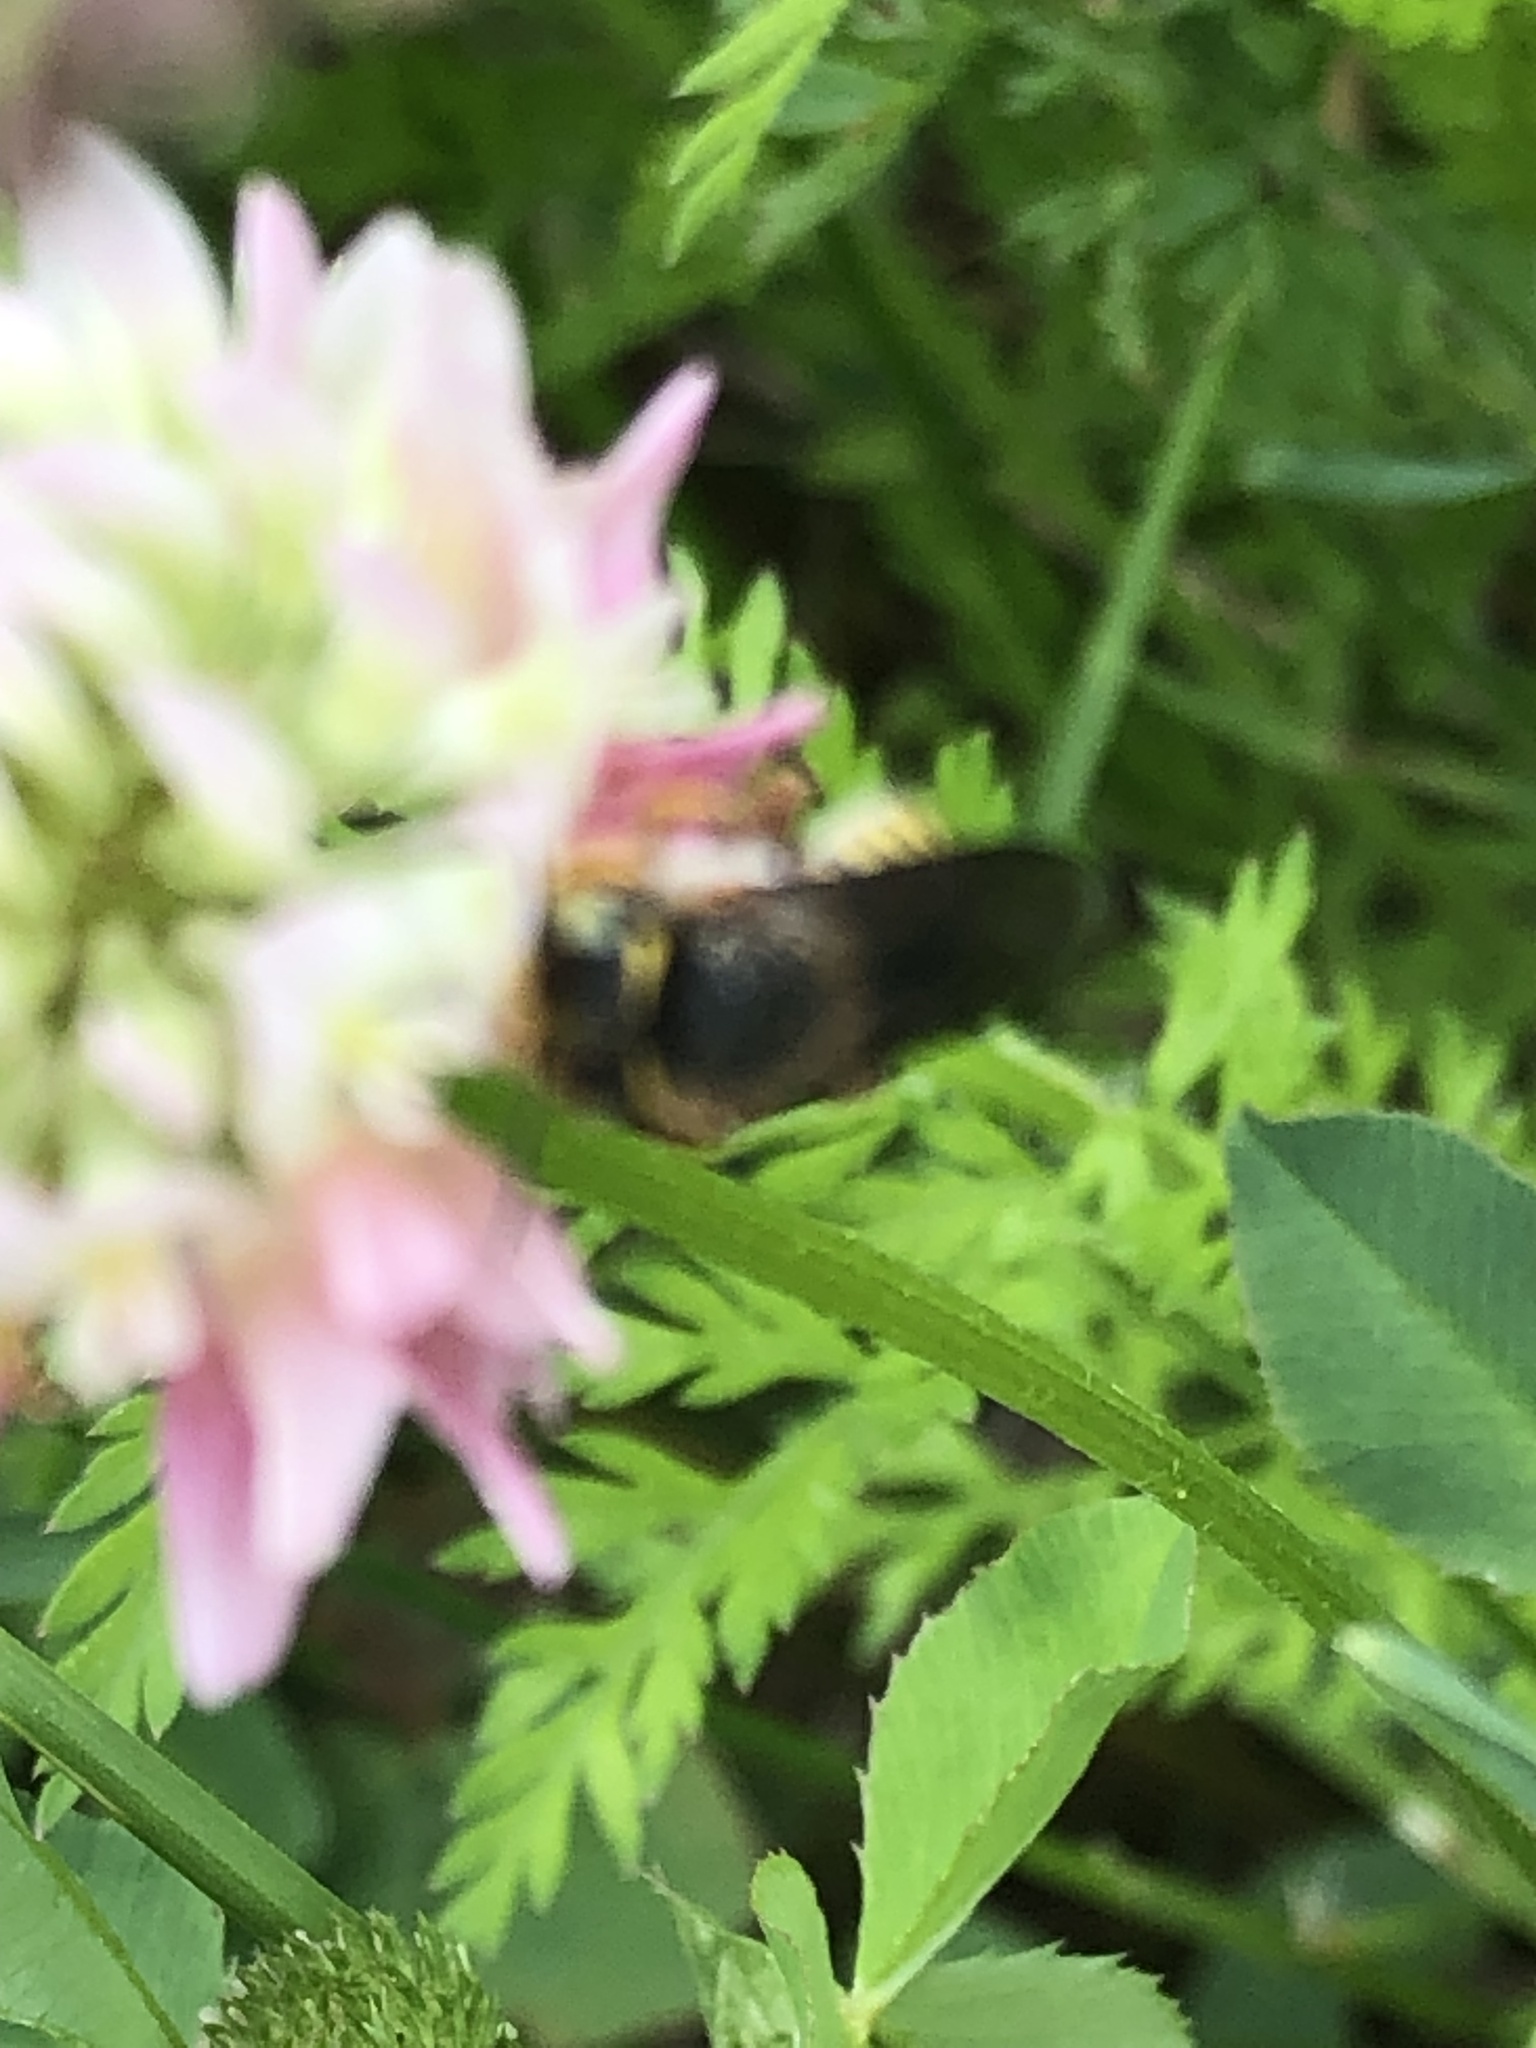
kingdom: Animalia
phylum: Arthropoda
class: Insecta
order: Hymenoptera
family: Megachilidae
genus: Anthidium
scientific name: Anthidium oblongatum
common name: Oblong wool carder bee
